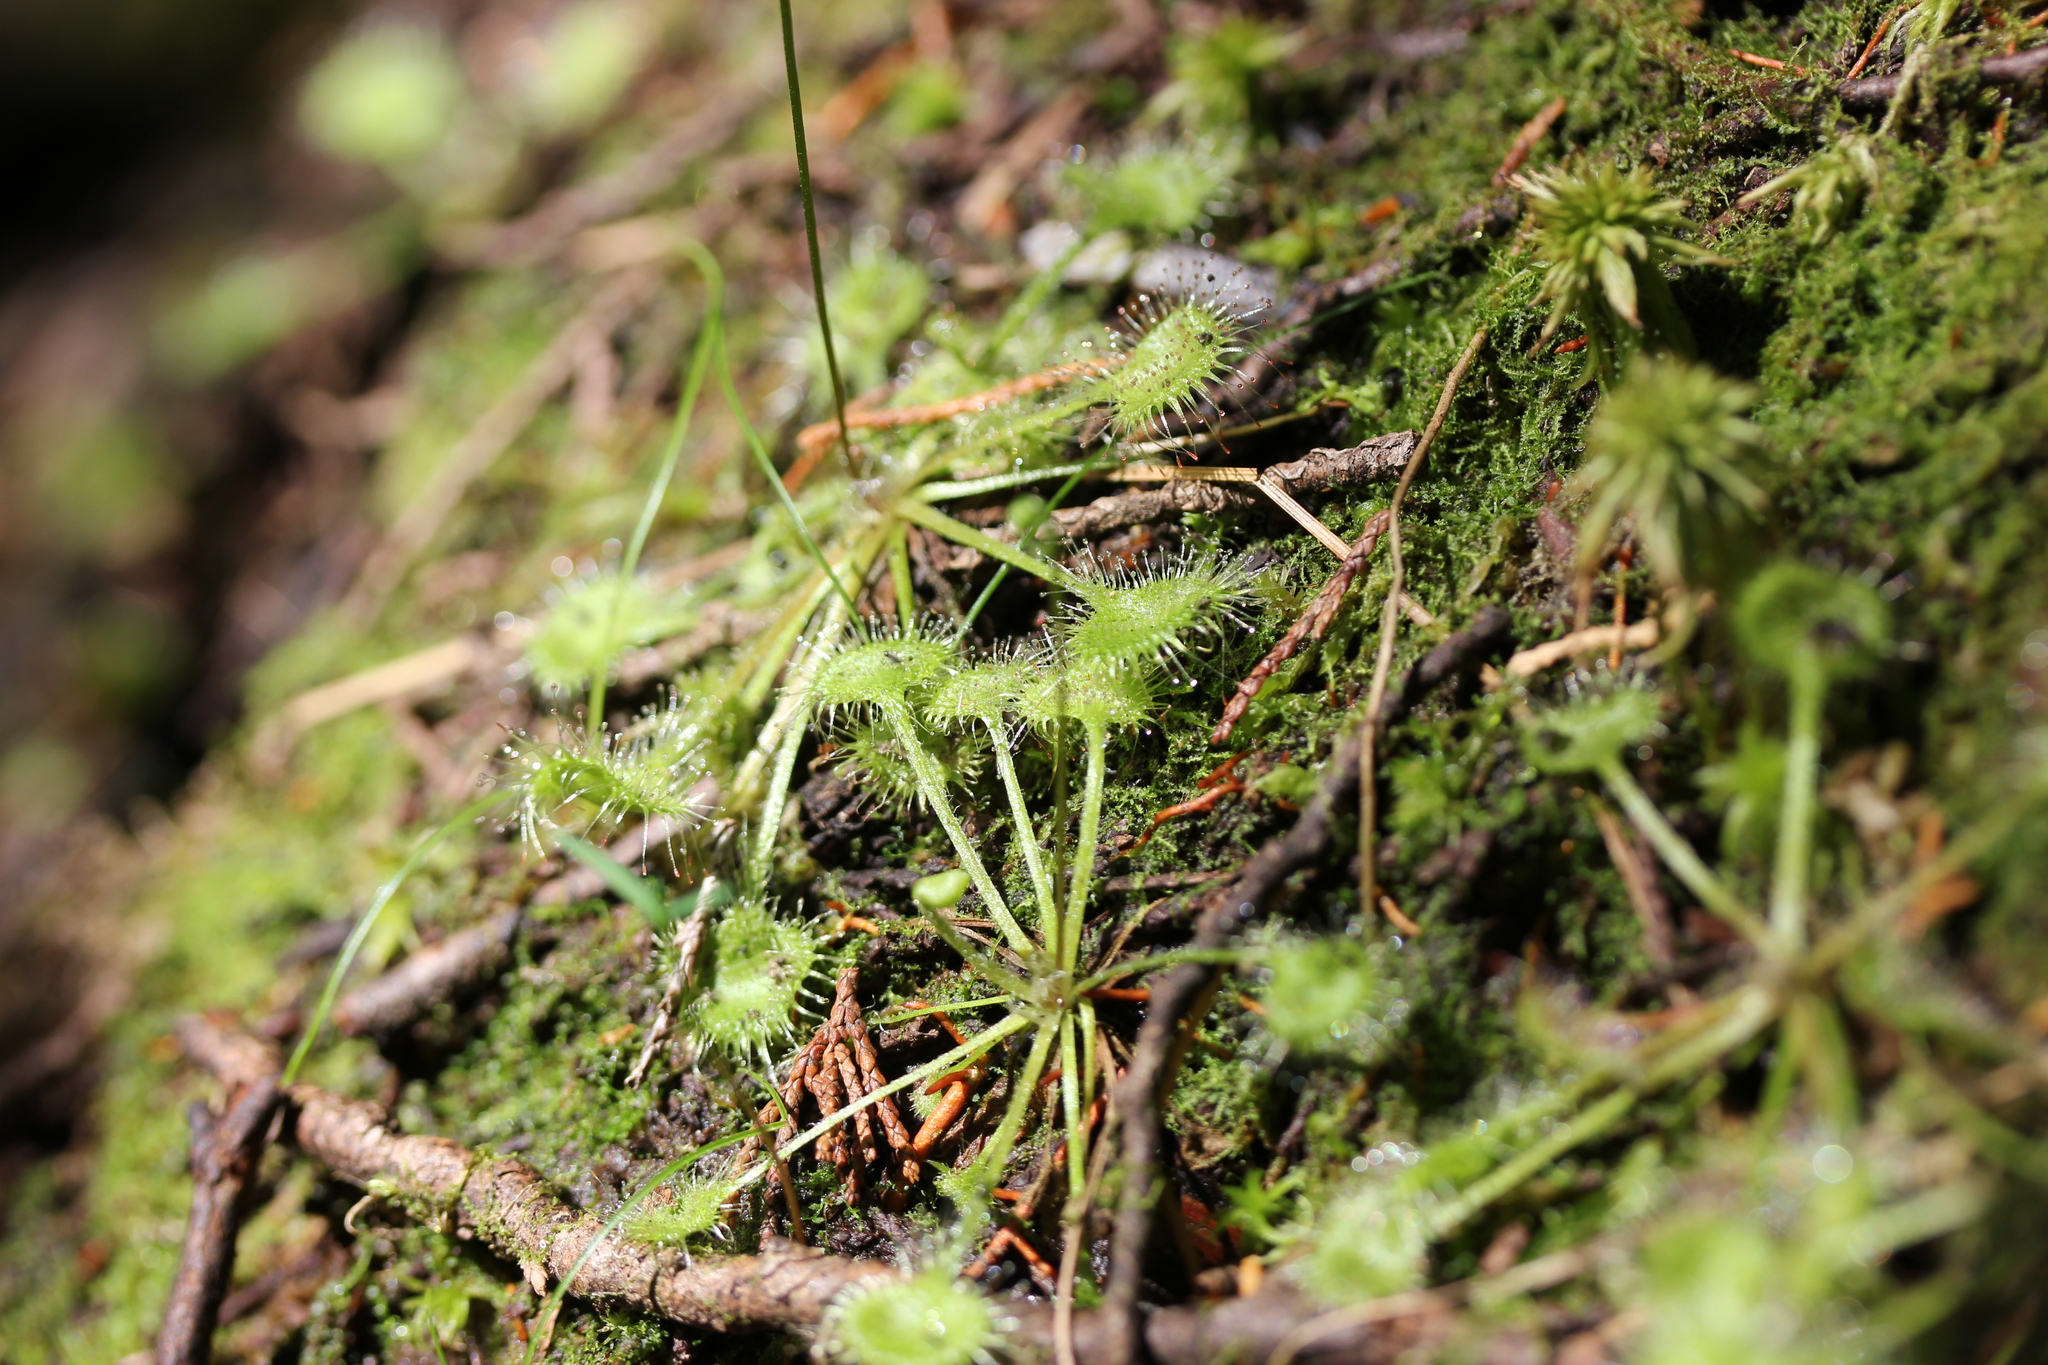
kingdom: Plantae
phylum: Tracheophyta
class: Magnoliopsida
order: Caryophyllales
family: Droseraceae
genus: Drosera
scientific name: Drosera rotundifolia
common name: Round-leaved sundew
